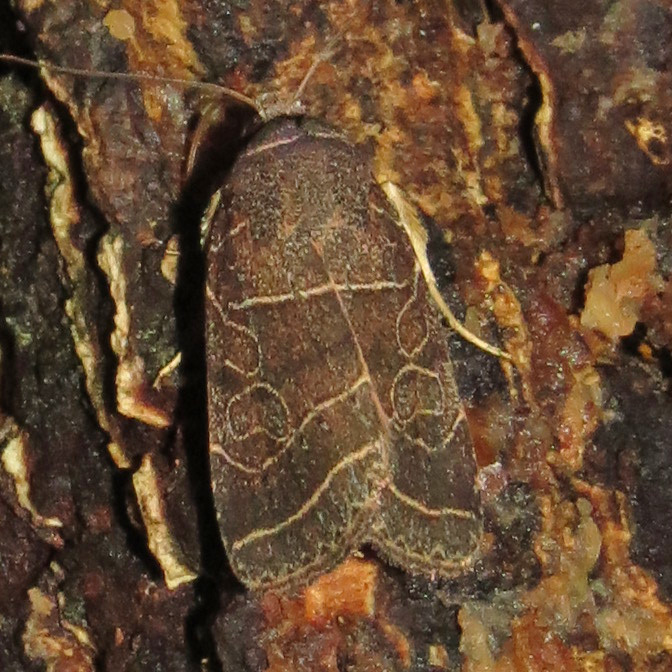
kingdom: Animalia
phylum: Arthropoda
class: Insecta
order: Lepidoptera
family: Noctuidae
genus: Orthodes
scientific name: Orthodes majuscula
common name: Rustic quaker
